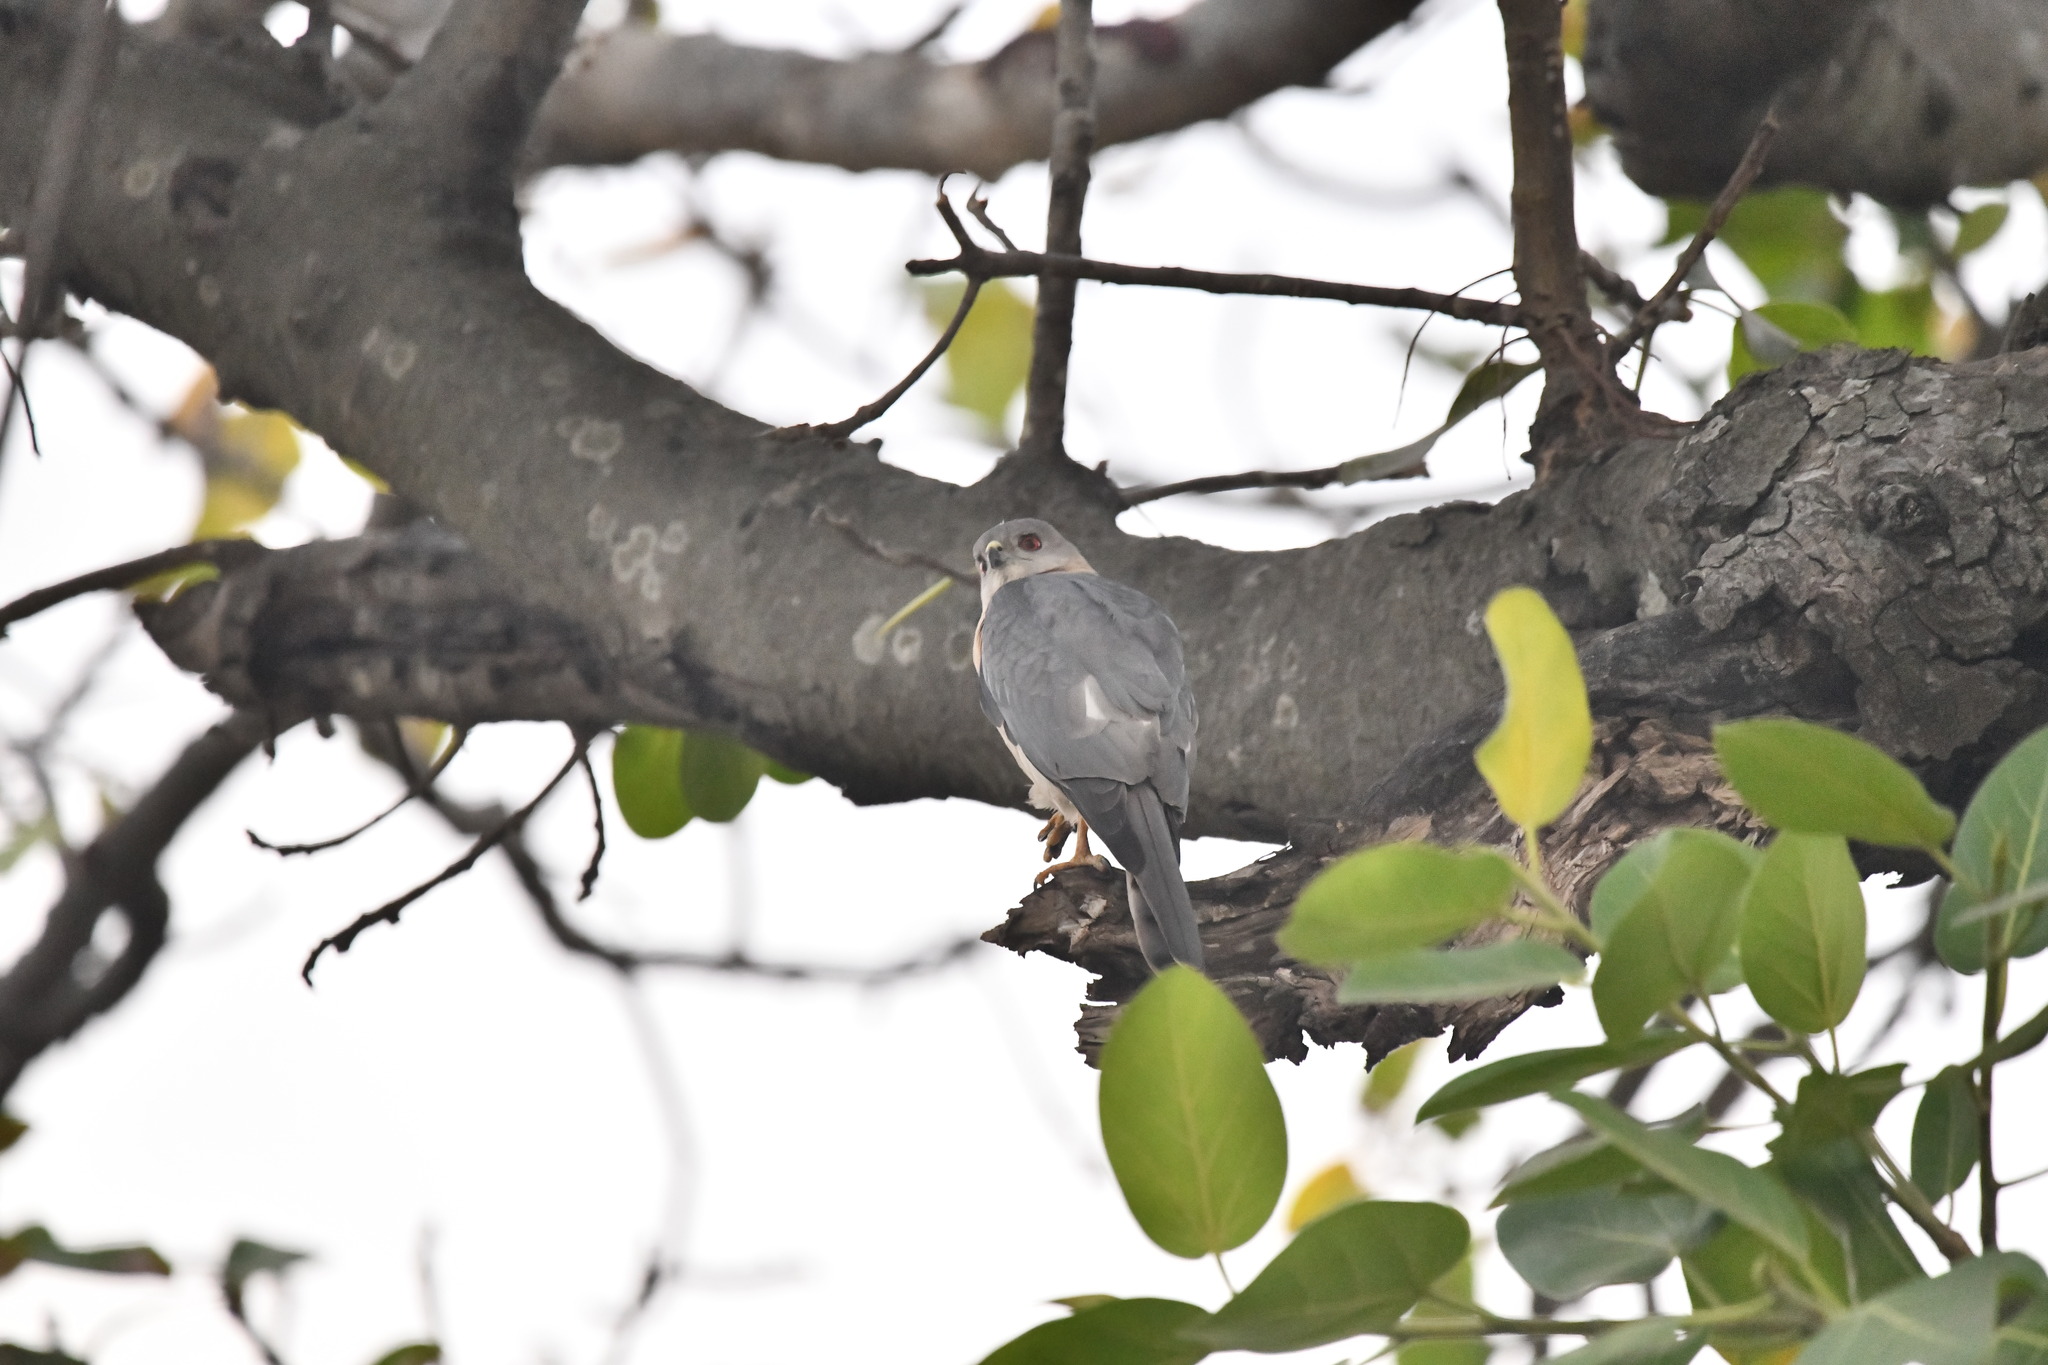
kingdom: Animalia
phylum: Chordata
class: Aves
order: Accipitriformes
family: Accipitridae
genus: Accipiter
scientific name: Accipiter badius
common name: Shikra
